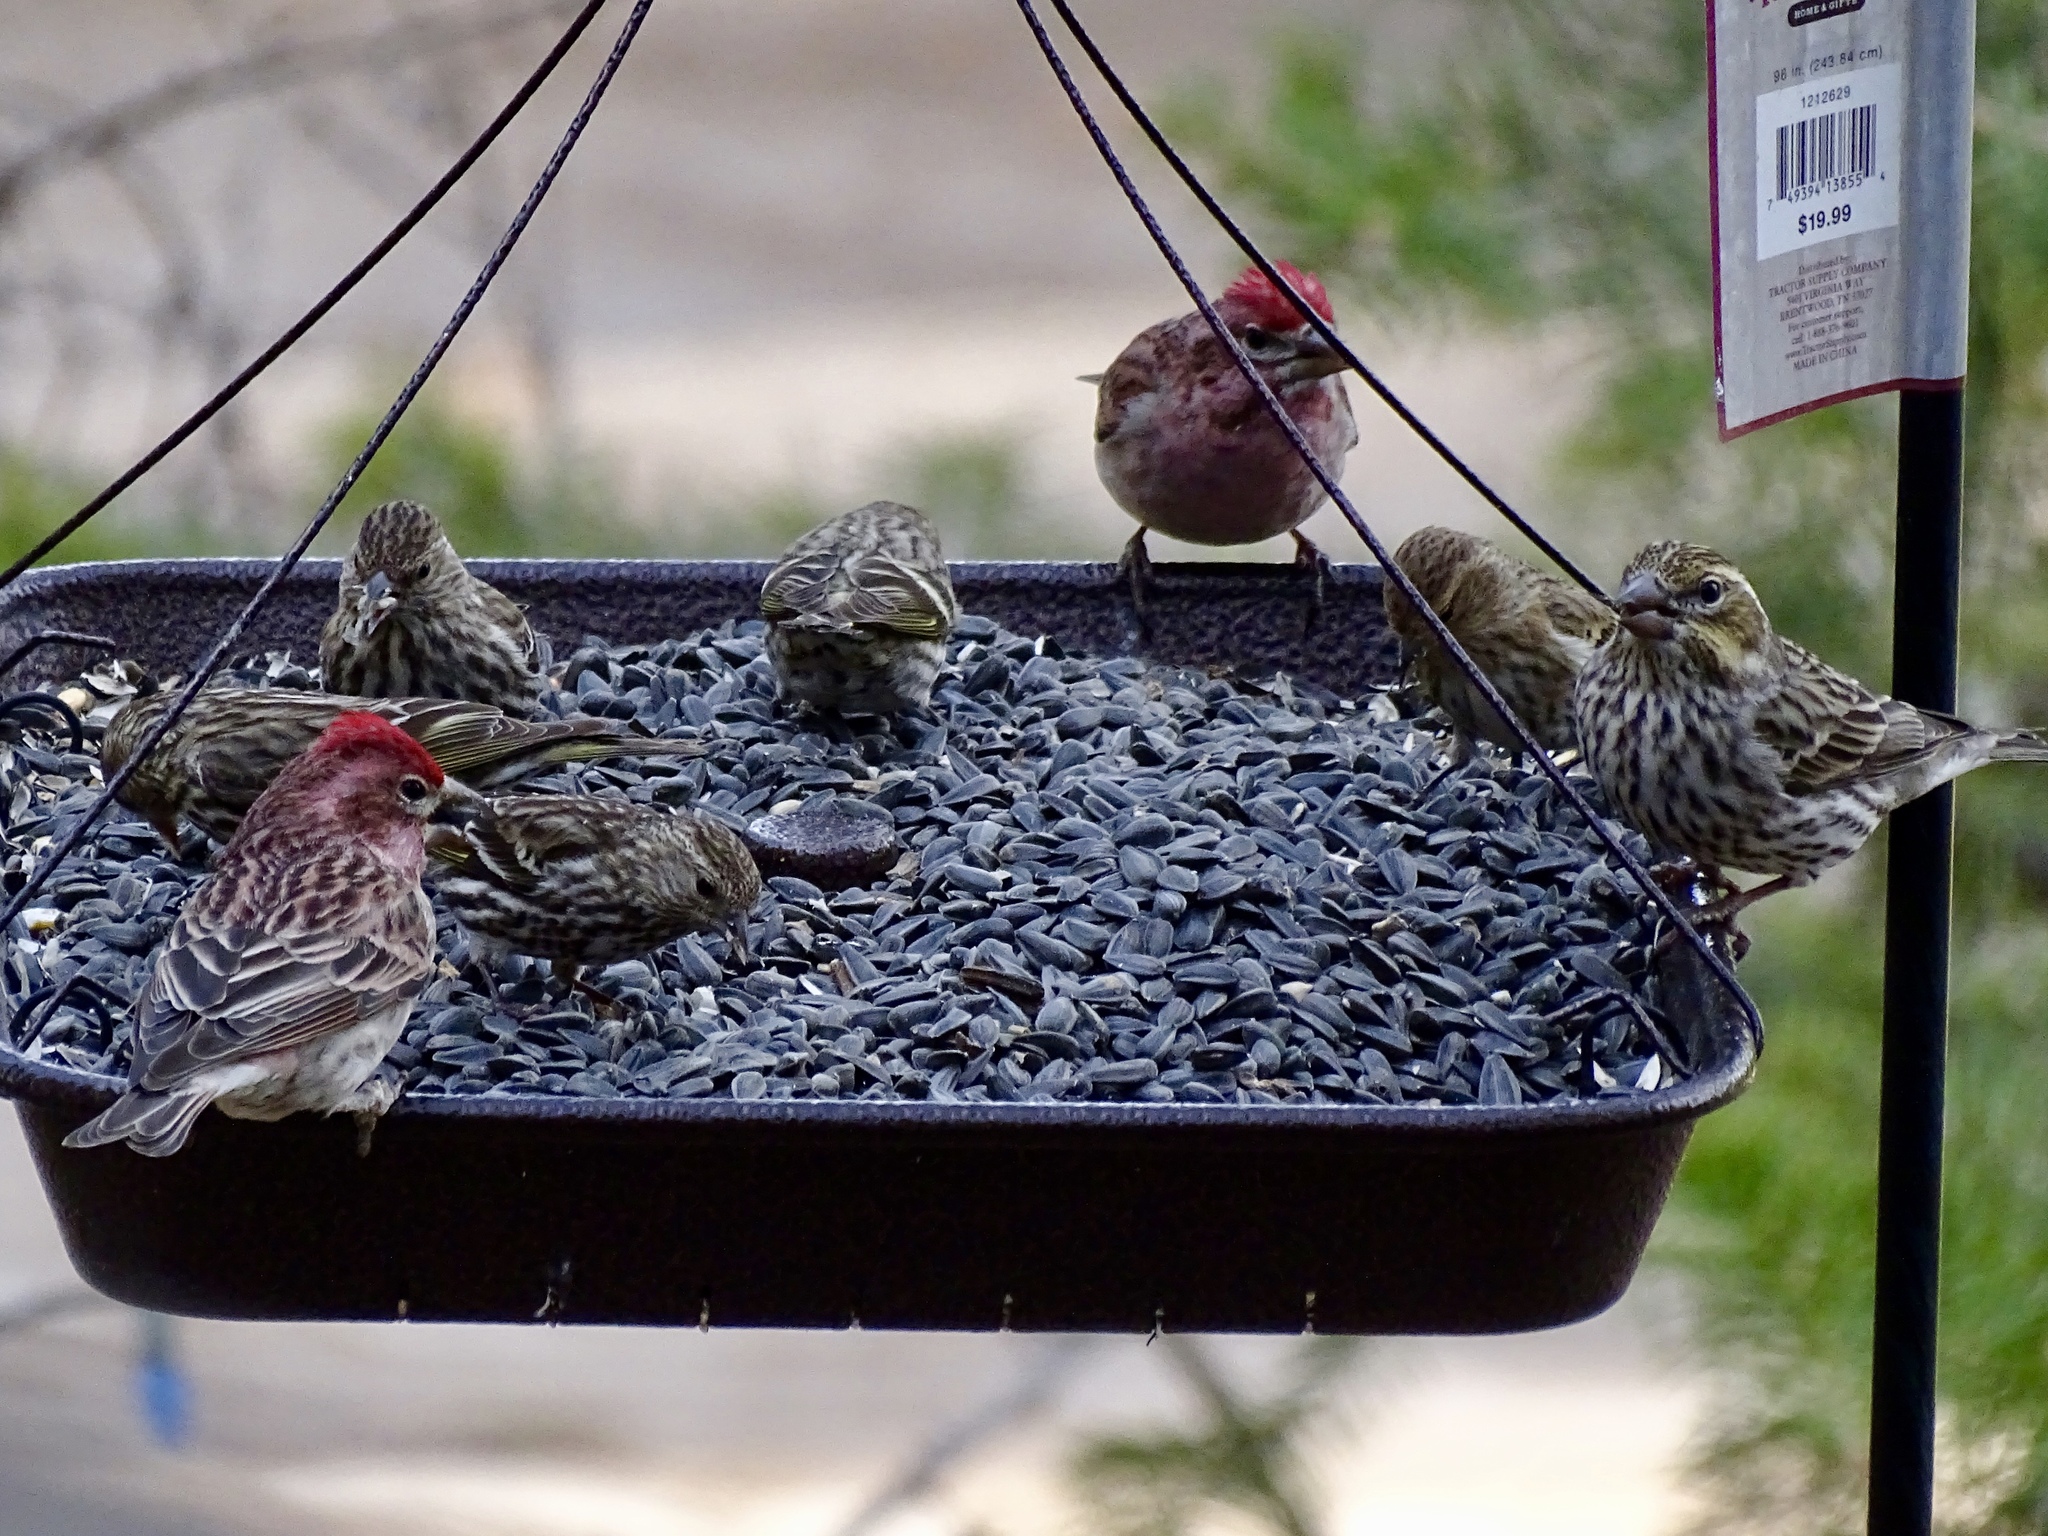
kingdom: Animalia
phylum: Chordata
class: Aves
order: Passeriformes
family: Fringillidae
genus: Haemorhous
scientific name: Haemorhous cassinii
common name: Cassin's finch
